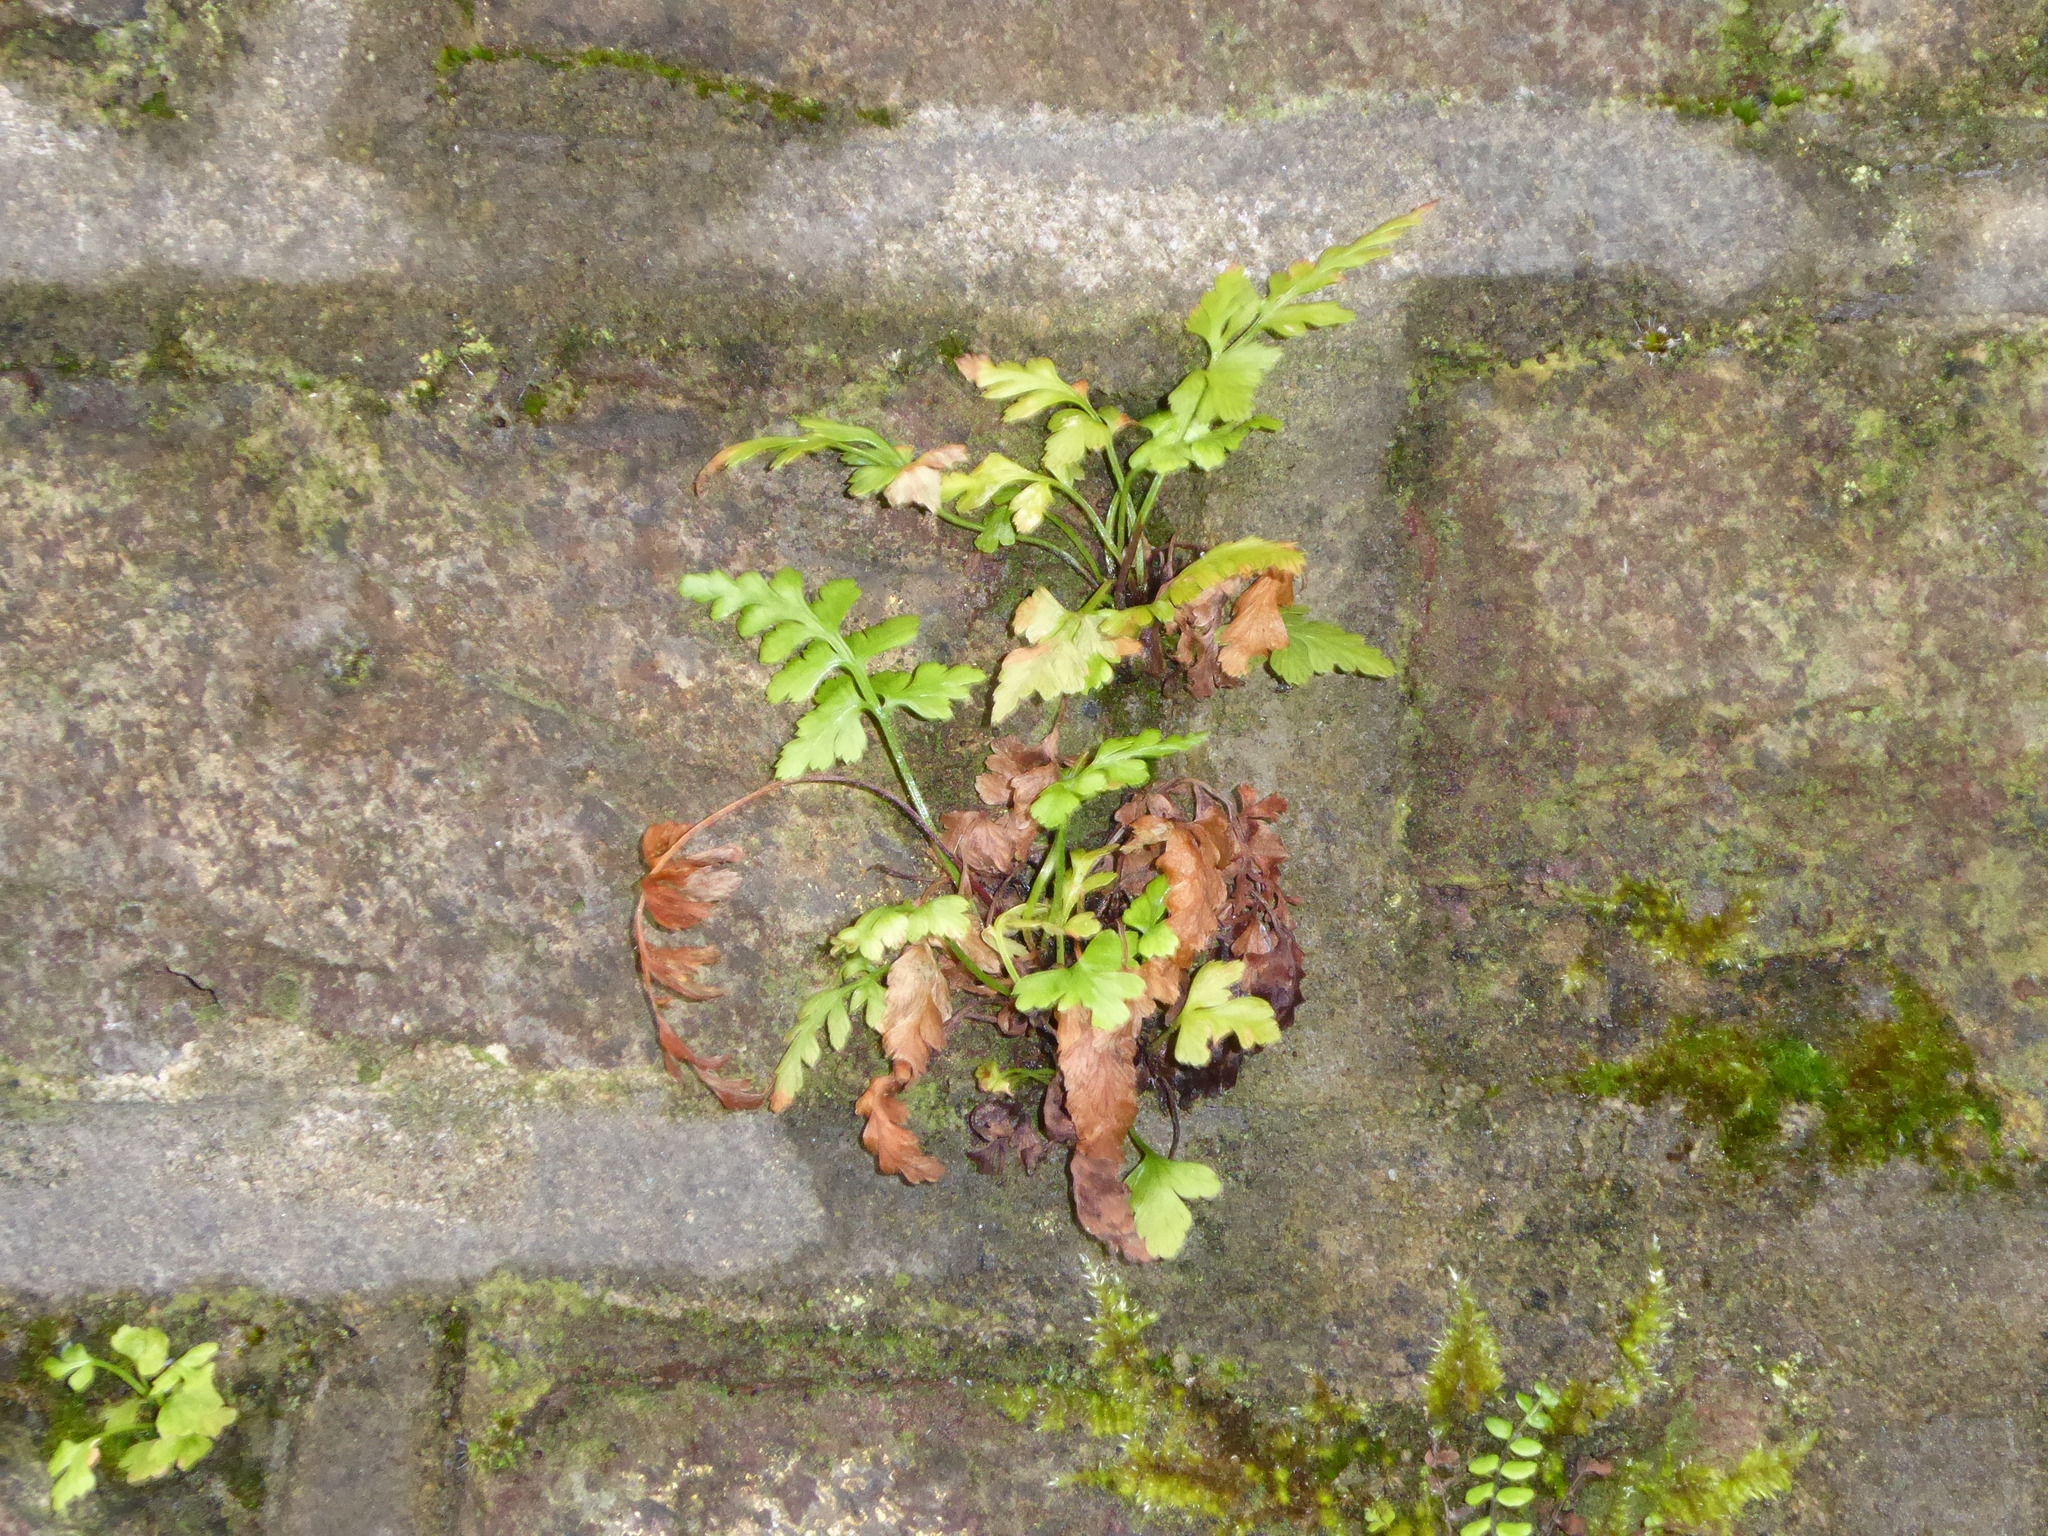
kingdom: Plantae
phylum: Tracheophyta
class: Polypodiopsida
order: Polypodiales
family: Aspleniaceae
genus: Asplenium
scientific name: Asplenium adiantum-nigrum
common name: Black spleenwort
